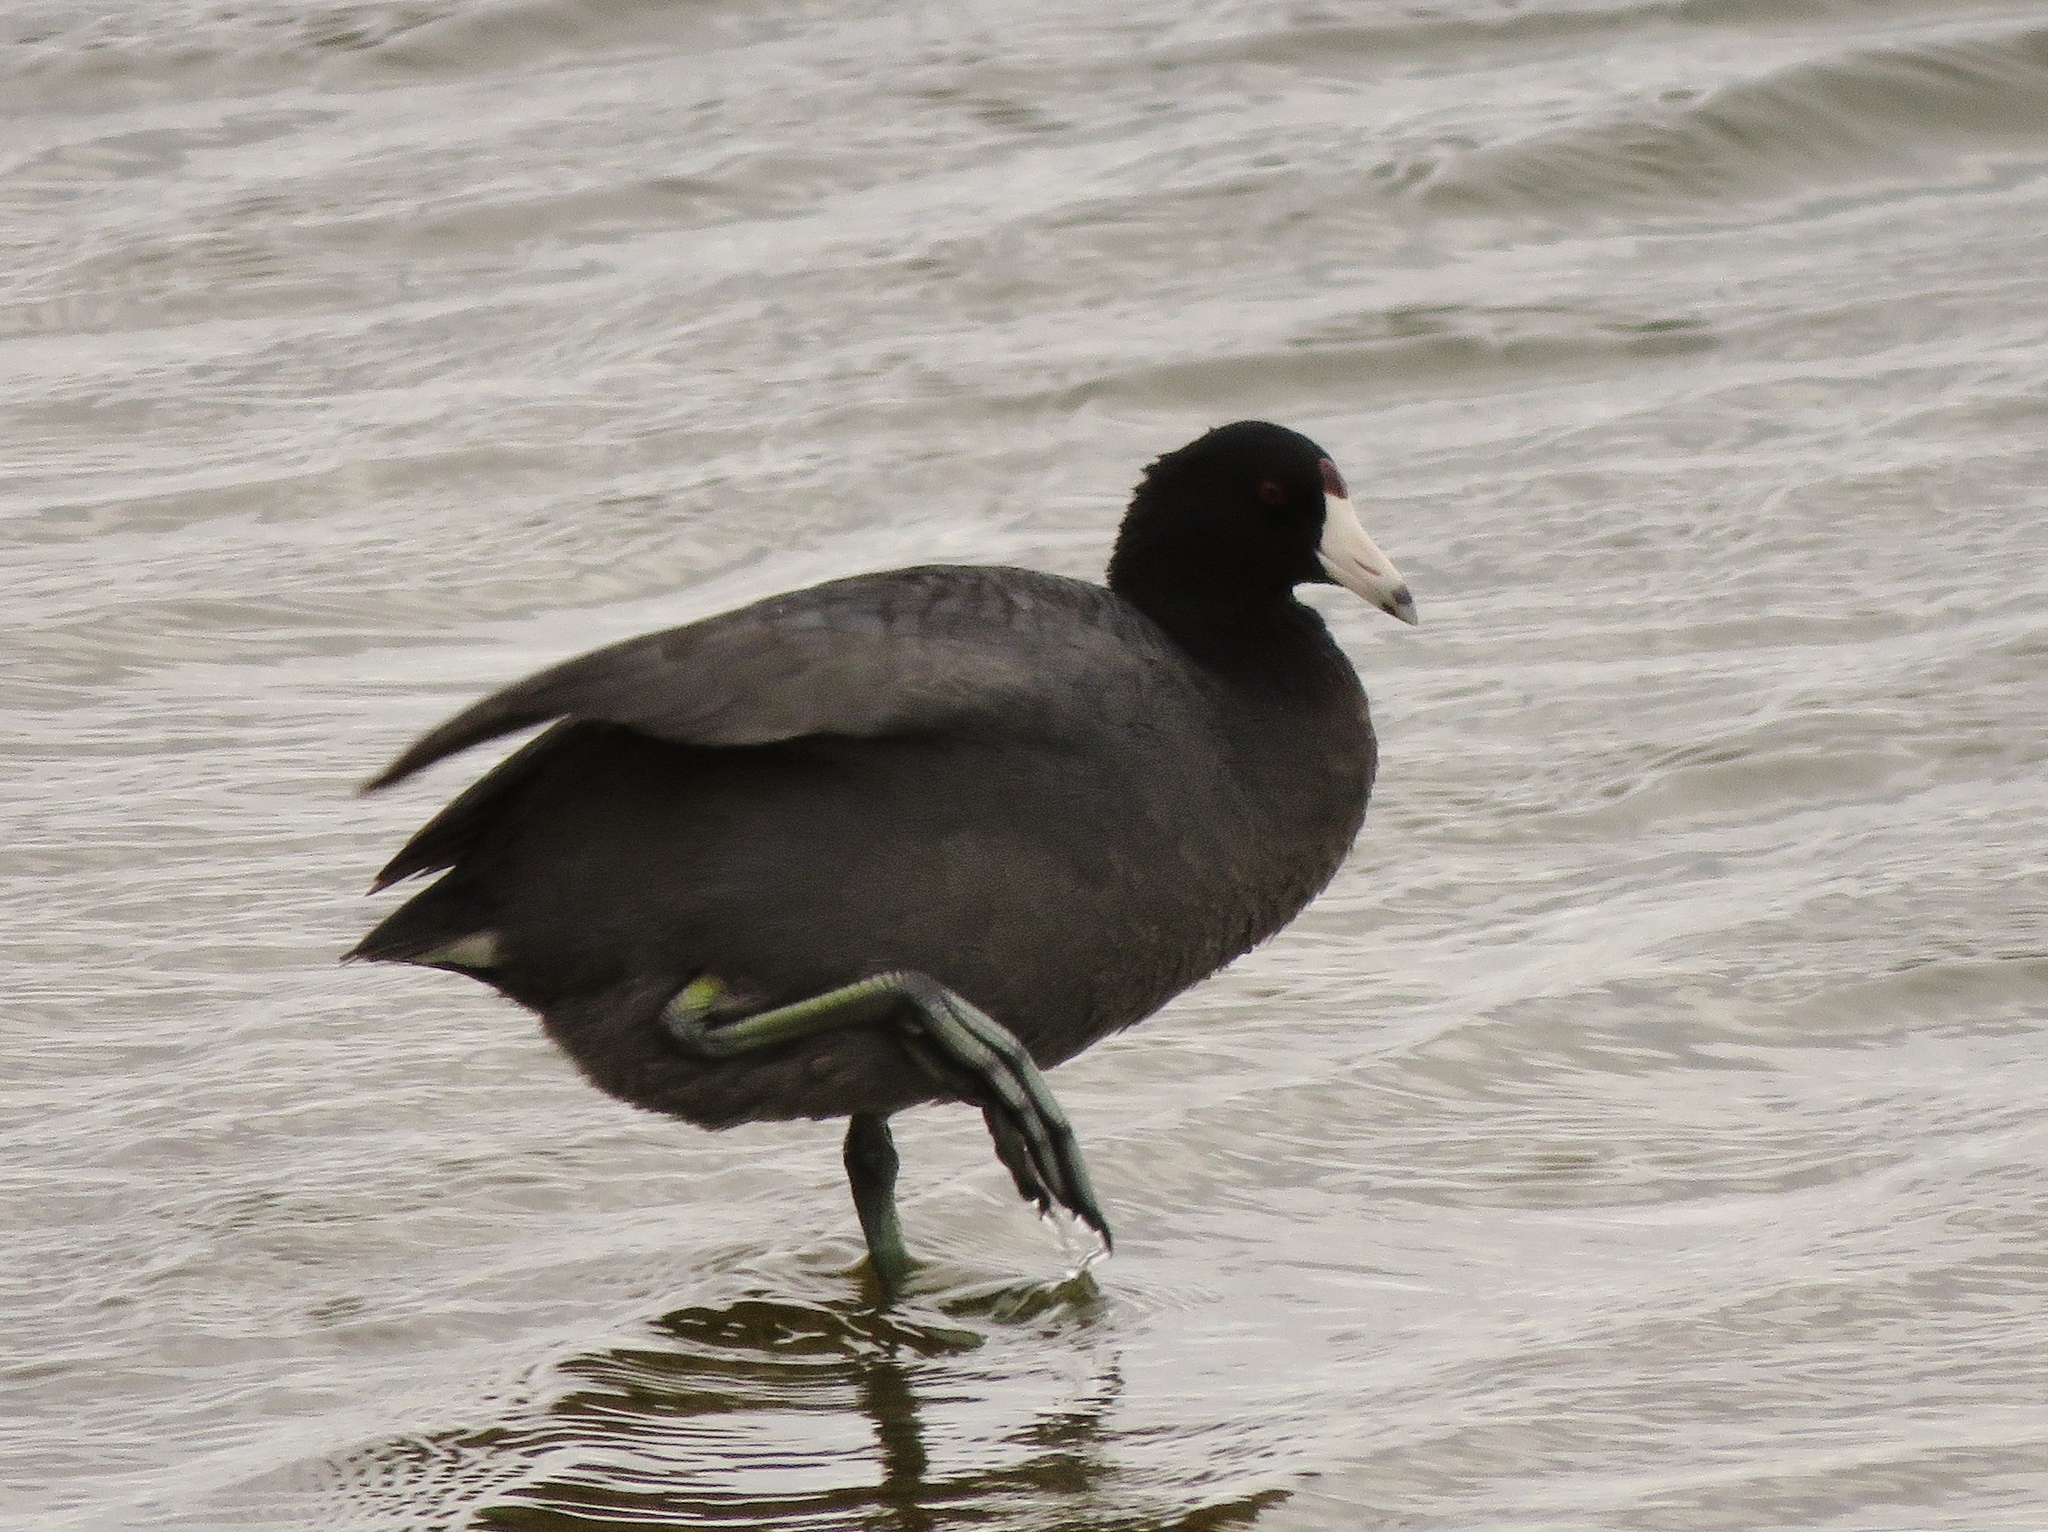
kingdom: Animalia
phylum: Chordata
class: Aves
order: Gruiformes
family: Rallidae
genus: Fulica
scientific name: Fulica americana
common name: American coot
